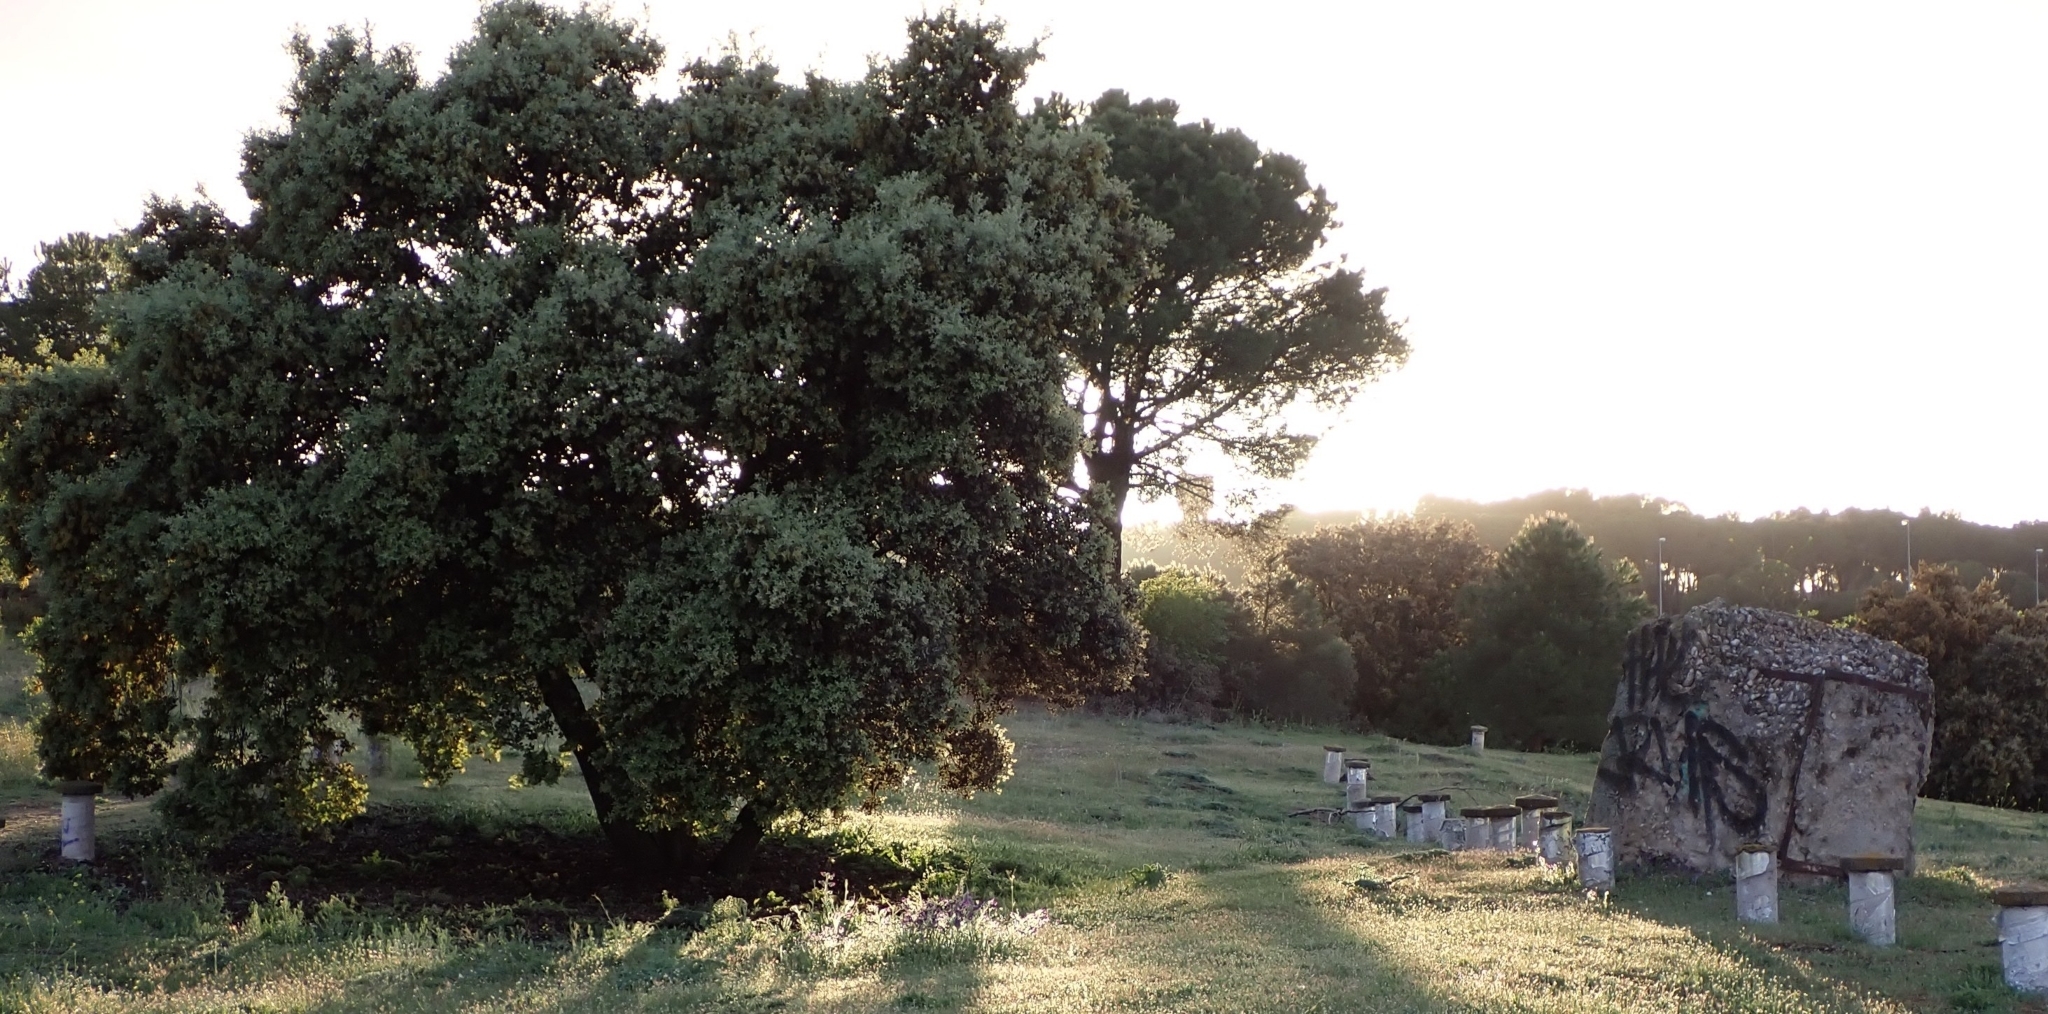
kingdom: Plantae
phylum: Tracheophyta
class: Magnoliopsida
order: Fagales
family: Fagaceae
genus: Quercus
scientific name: Quercus rotundifolia
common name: Holm oak
